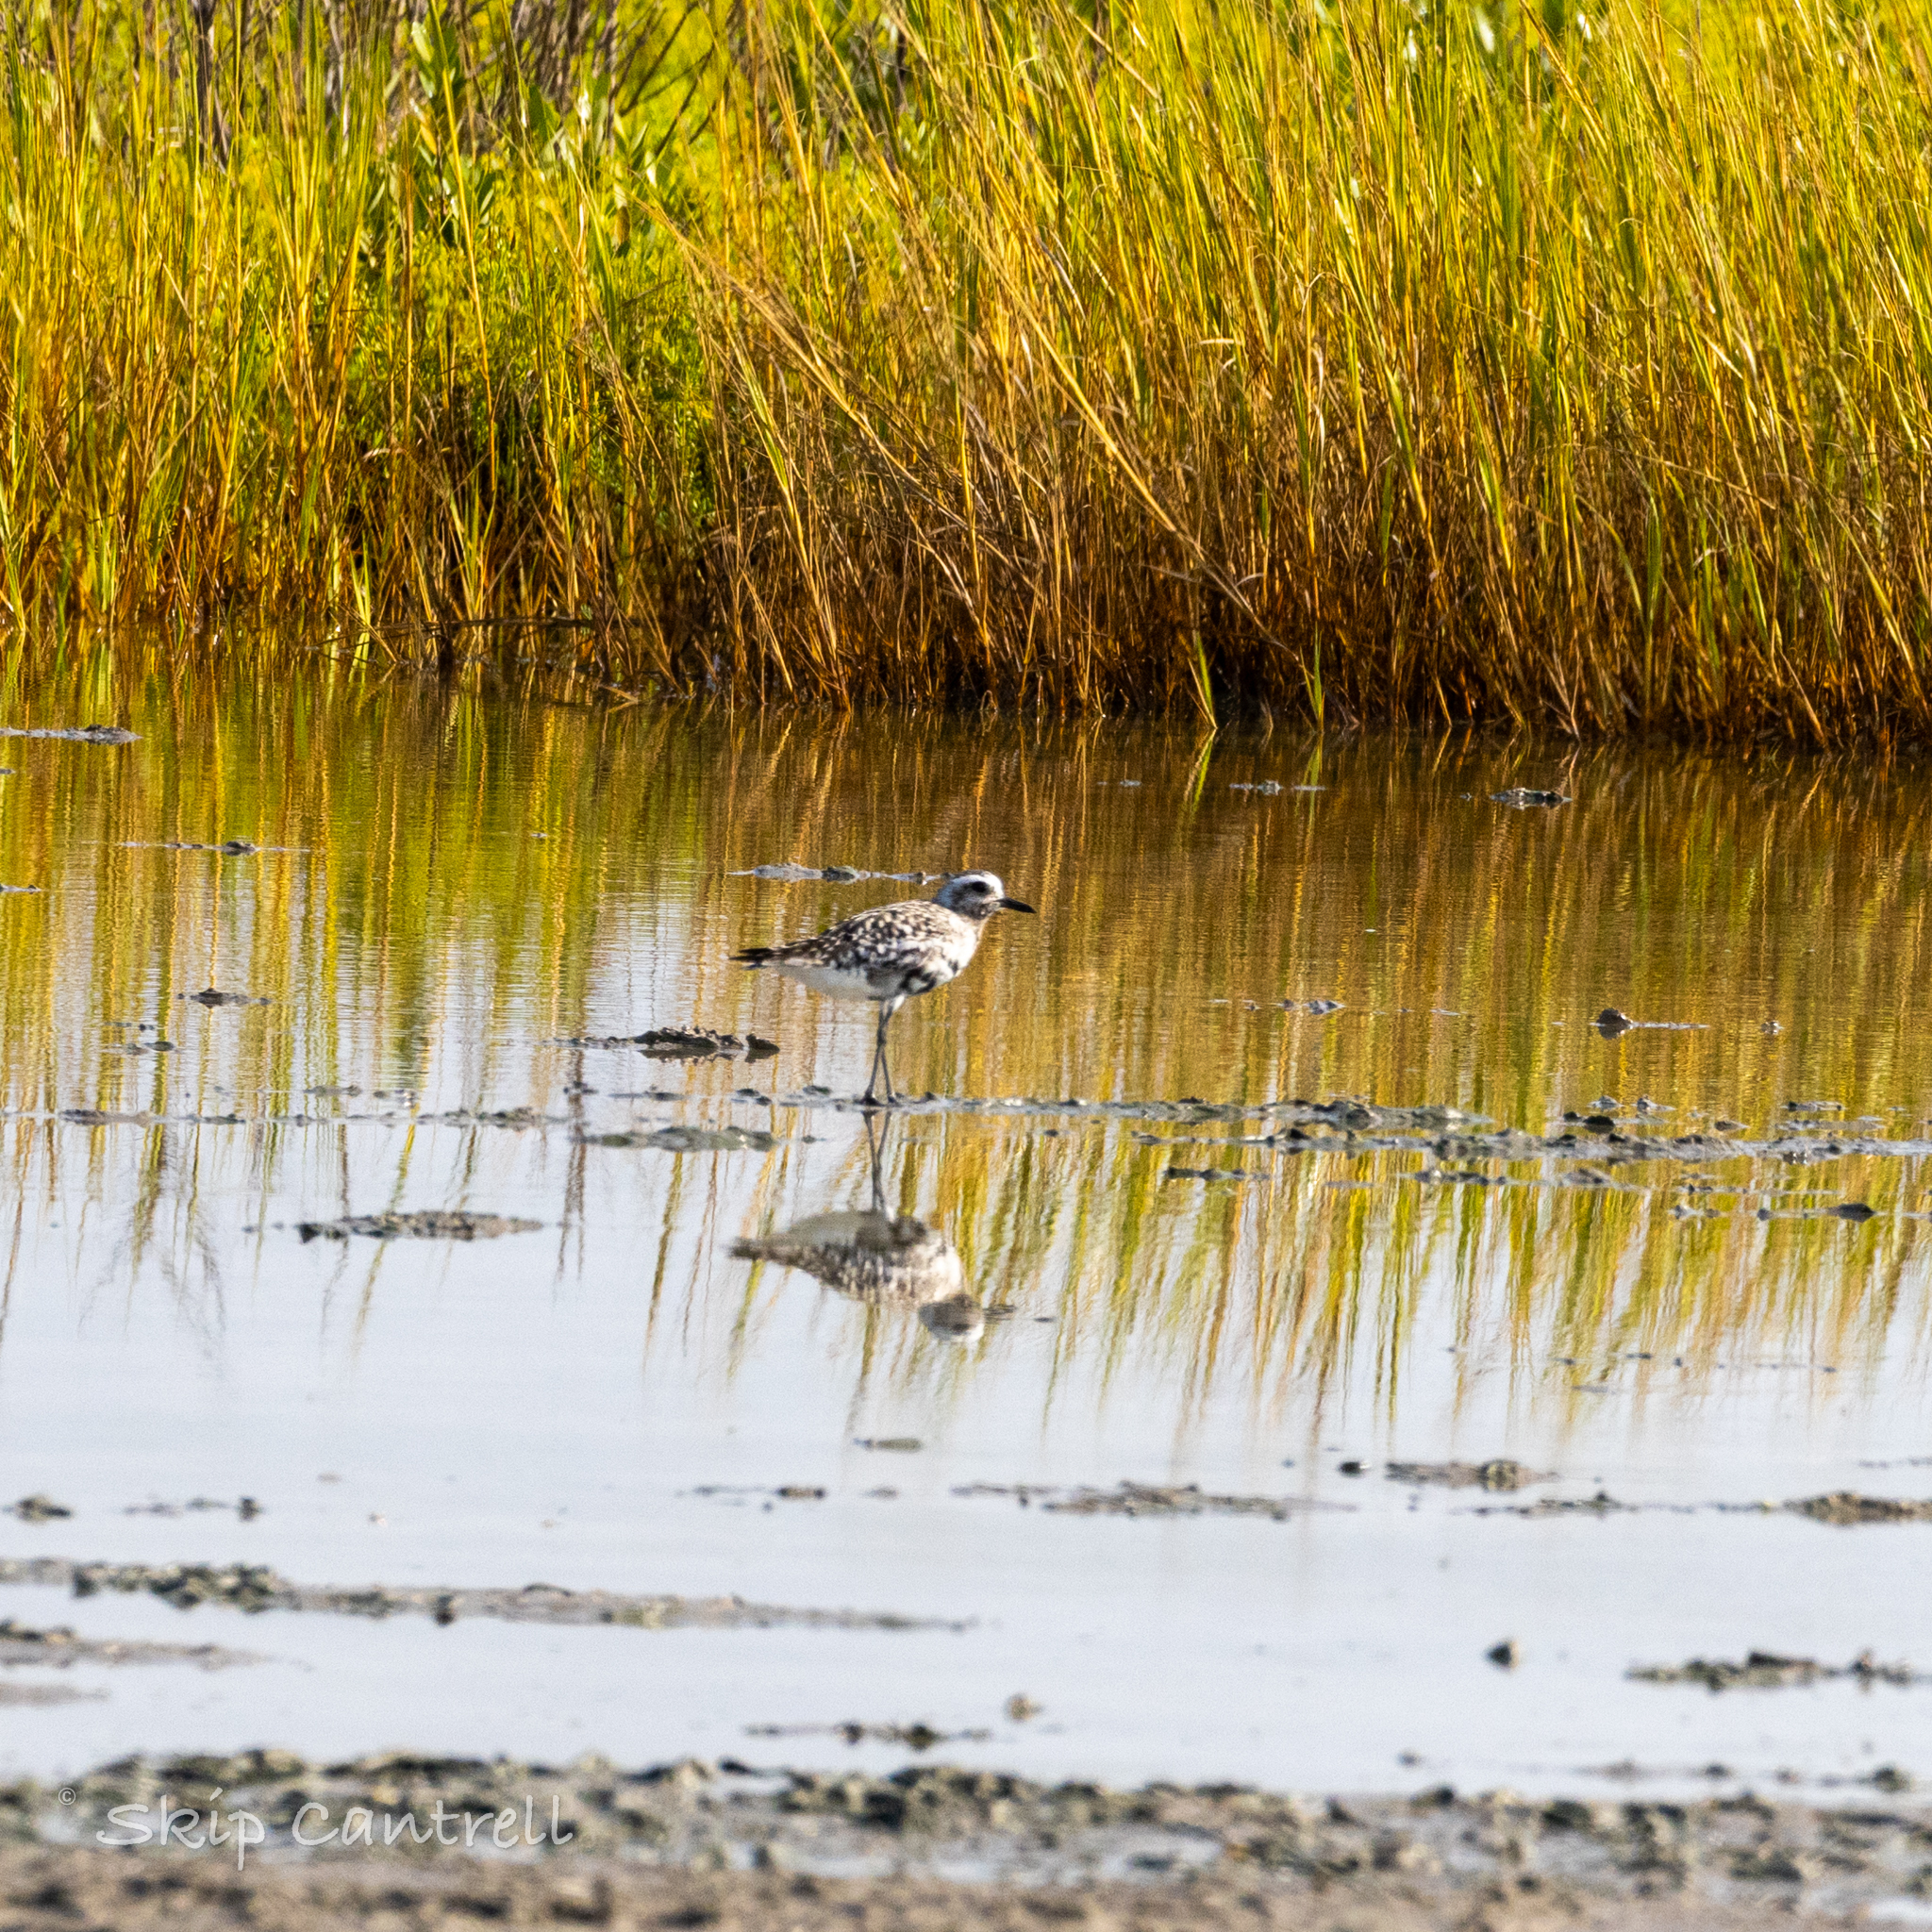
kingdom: Animalia
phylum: Chordata
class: Aves
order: Charadriiformes
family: Charadriidae
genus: Pluvialis
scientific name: Pluvialis squatarola
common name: Grey plover
